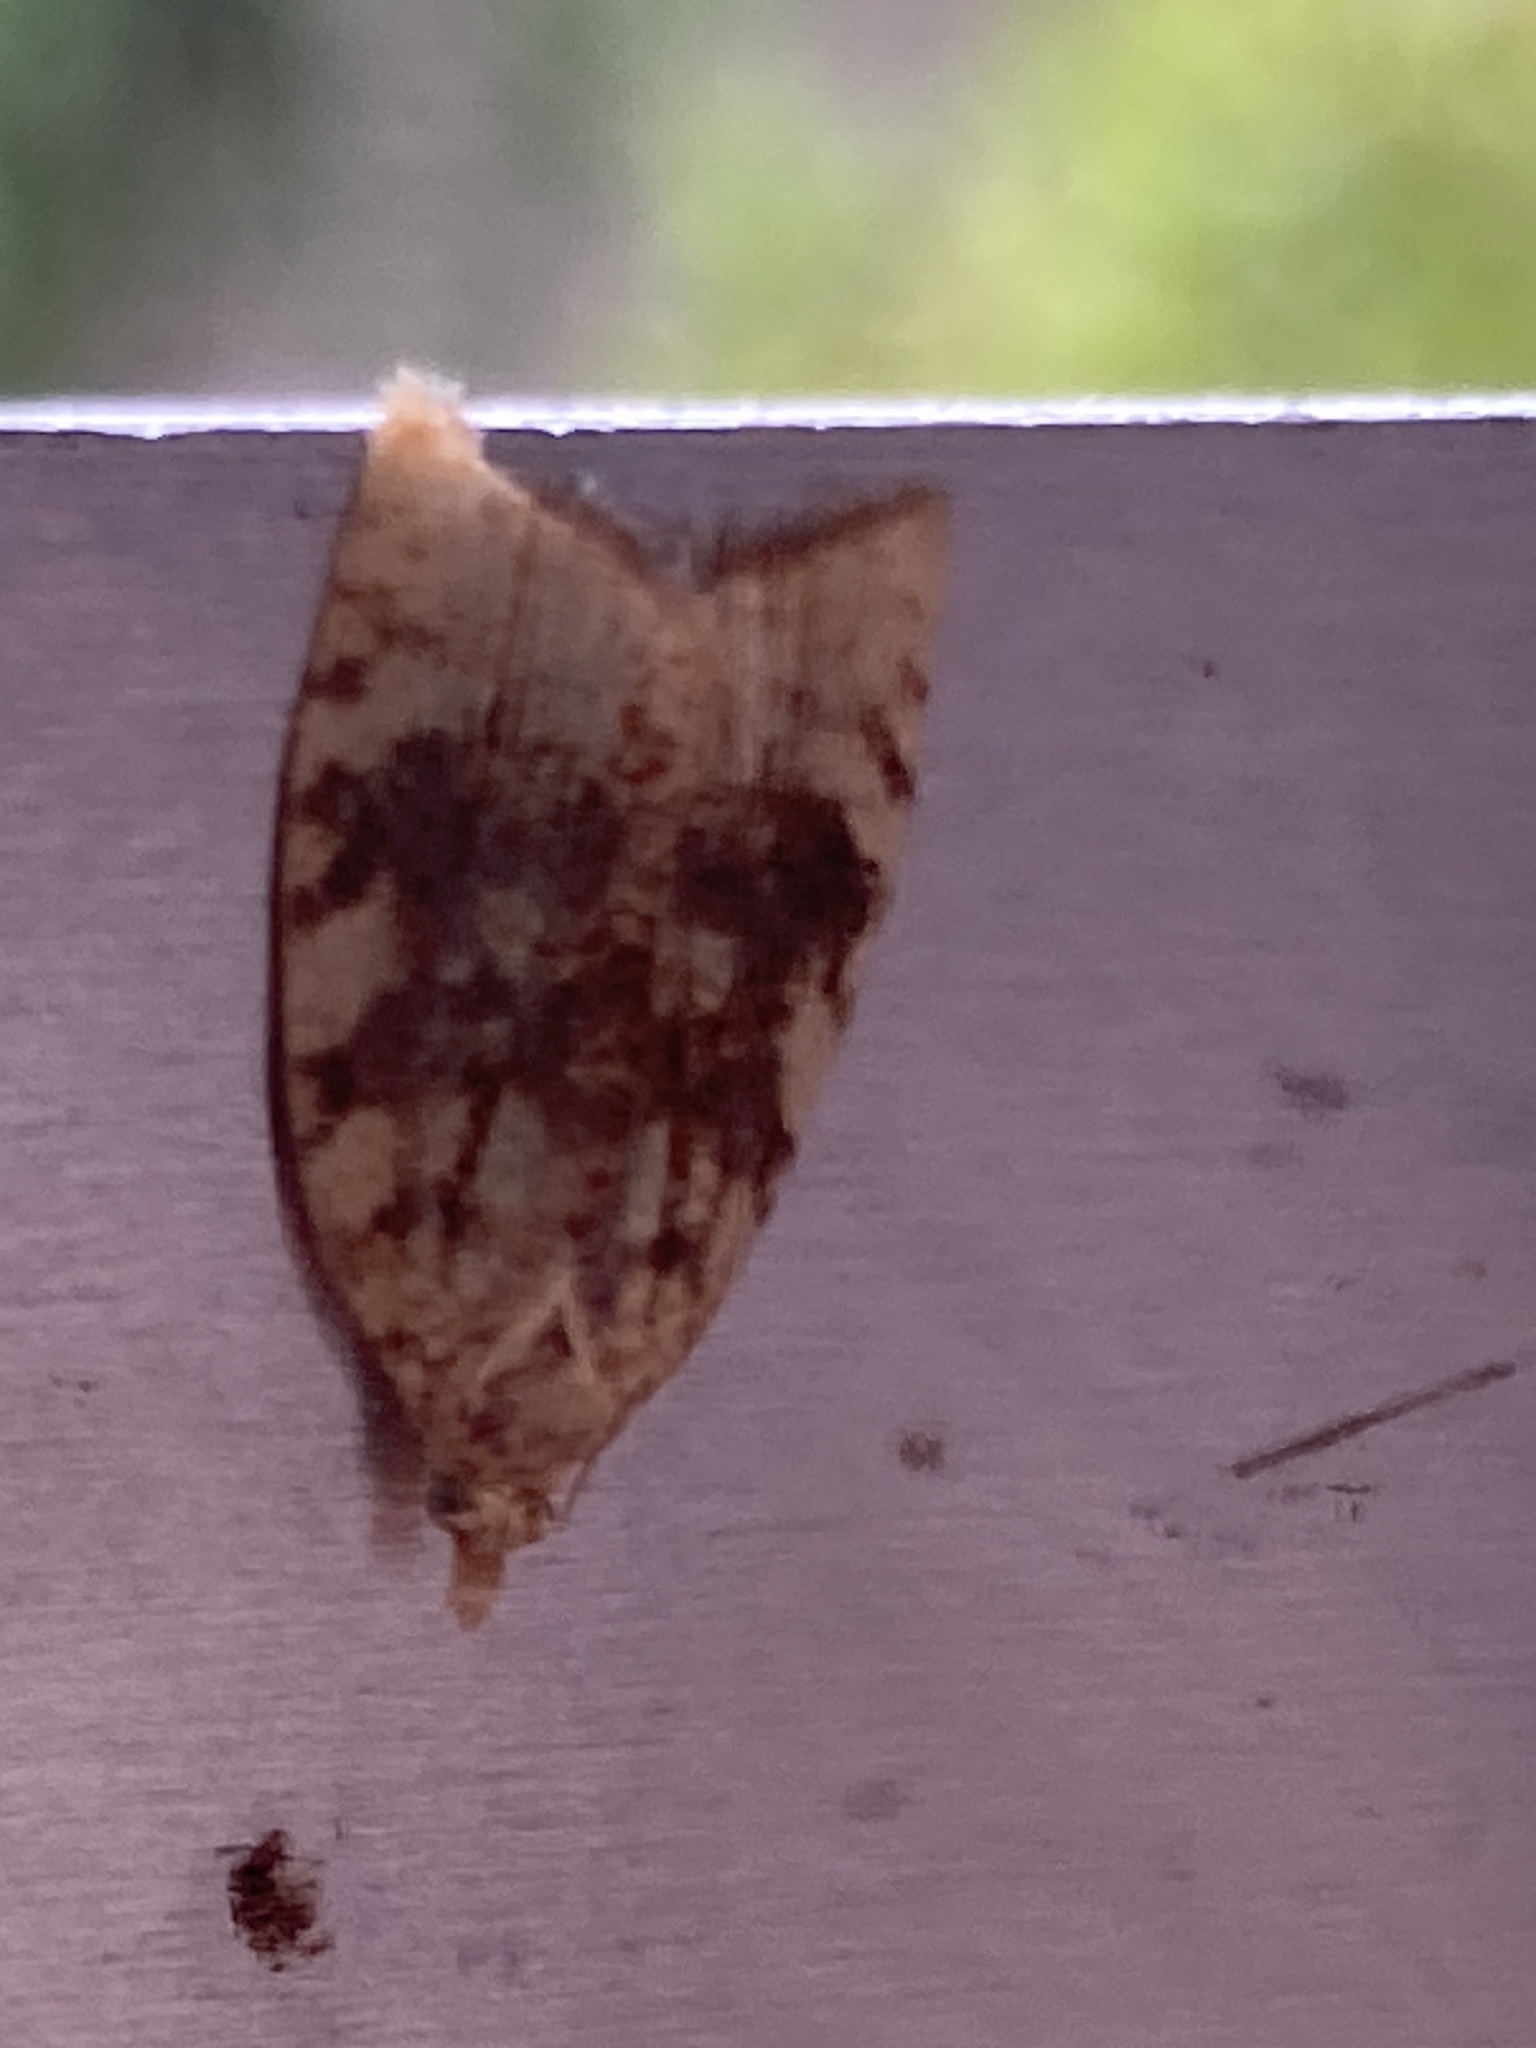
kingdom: Animalia
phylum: Arthropoda
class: Insecta
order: Lepidoptera
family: Tortricidae
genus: Aleimma
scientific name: Aleimma loeflingiana
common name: Yellow oak button
